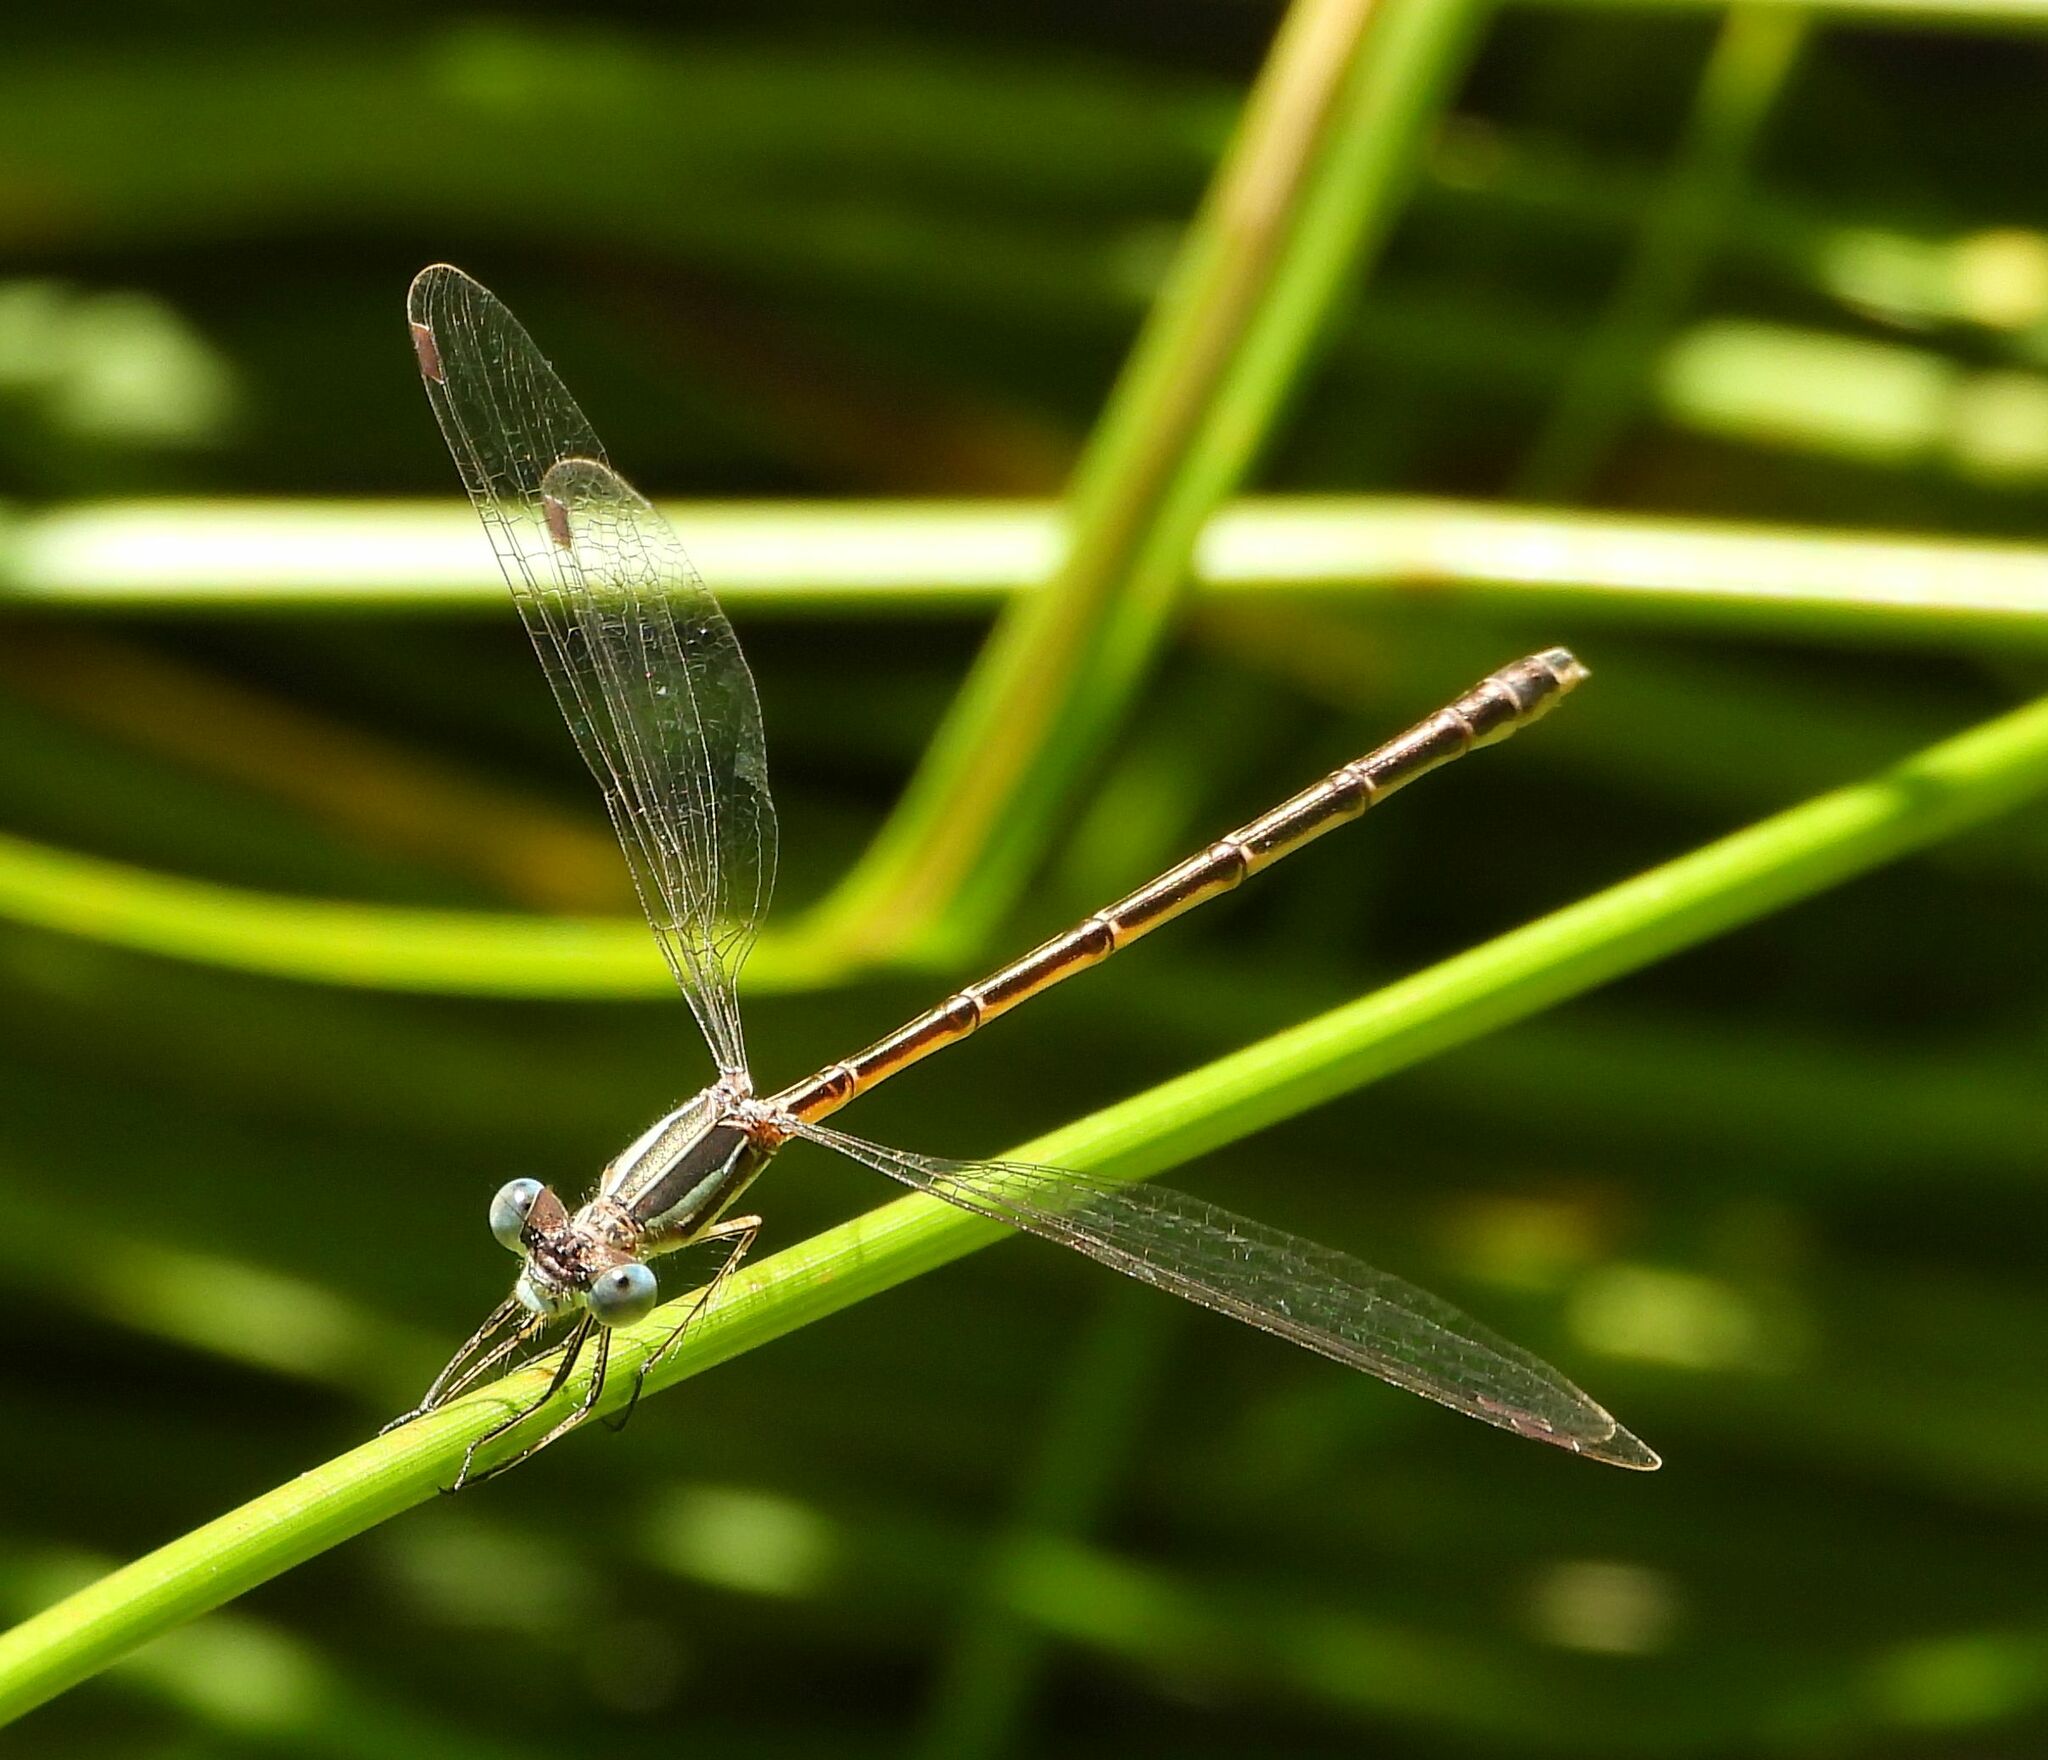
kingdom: Animalia
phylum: Arthropoda
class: Insecta
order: Odonata
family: Lestidae
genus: Lestes
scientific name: Lestes rectangularis
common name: Slender spreadwing
